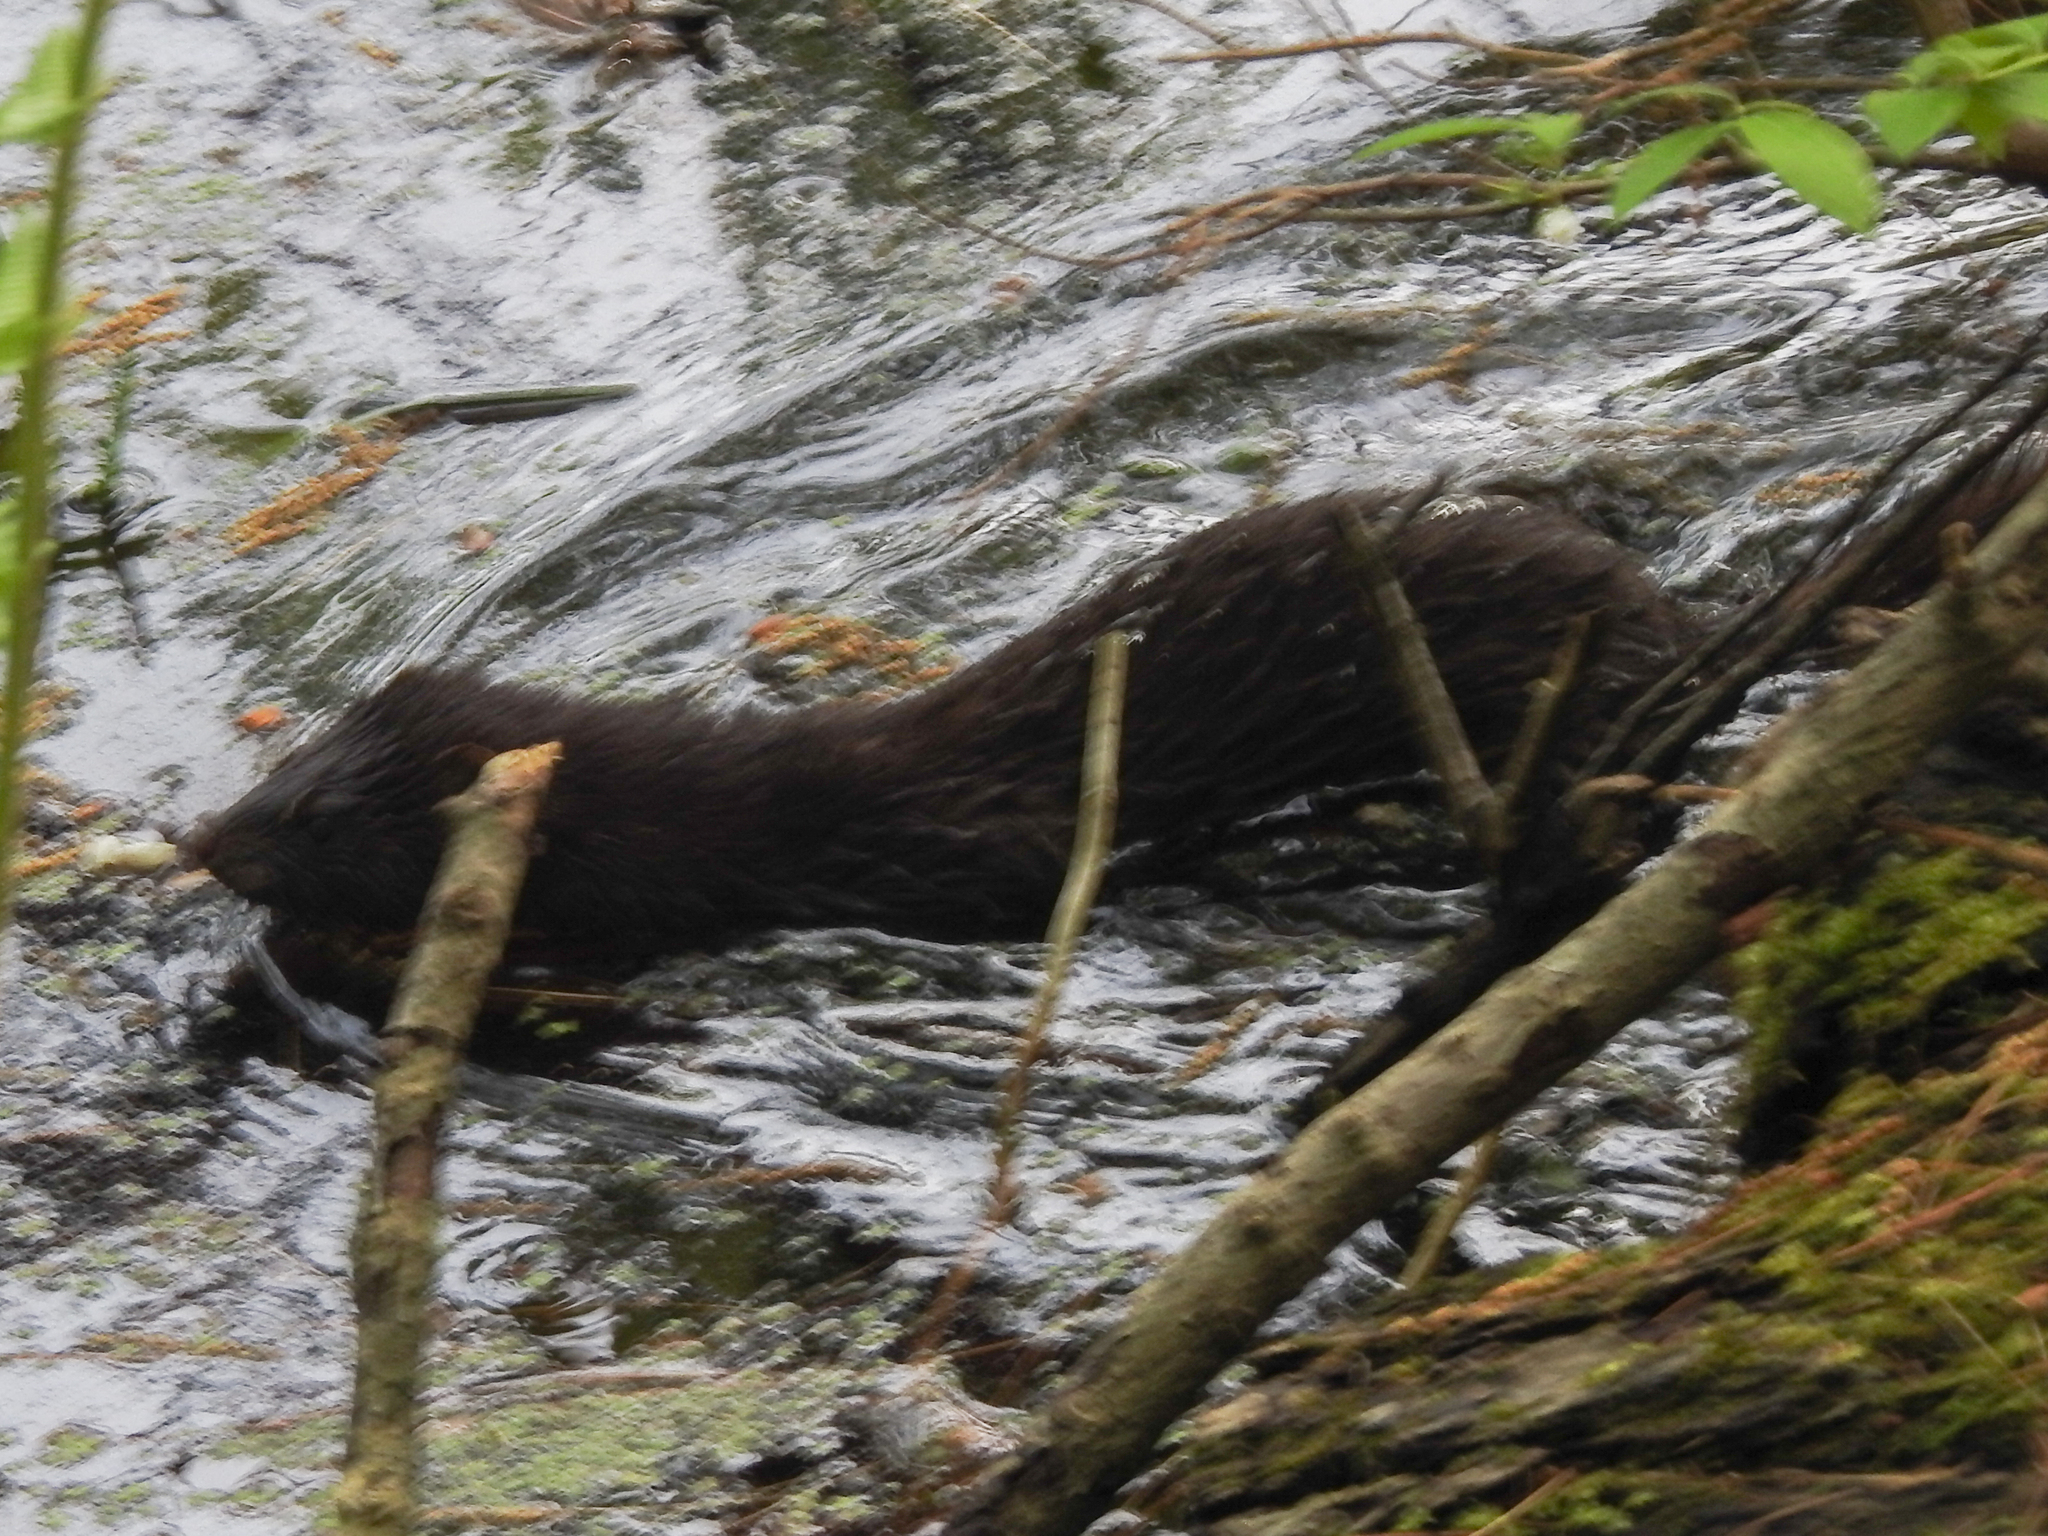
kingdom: Animalia
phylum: Chordata
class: Mammalia
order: Carnivora
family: Mustelidae
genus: Mustela
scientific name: Mustela
